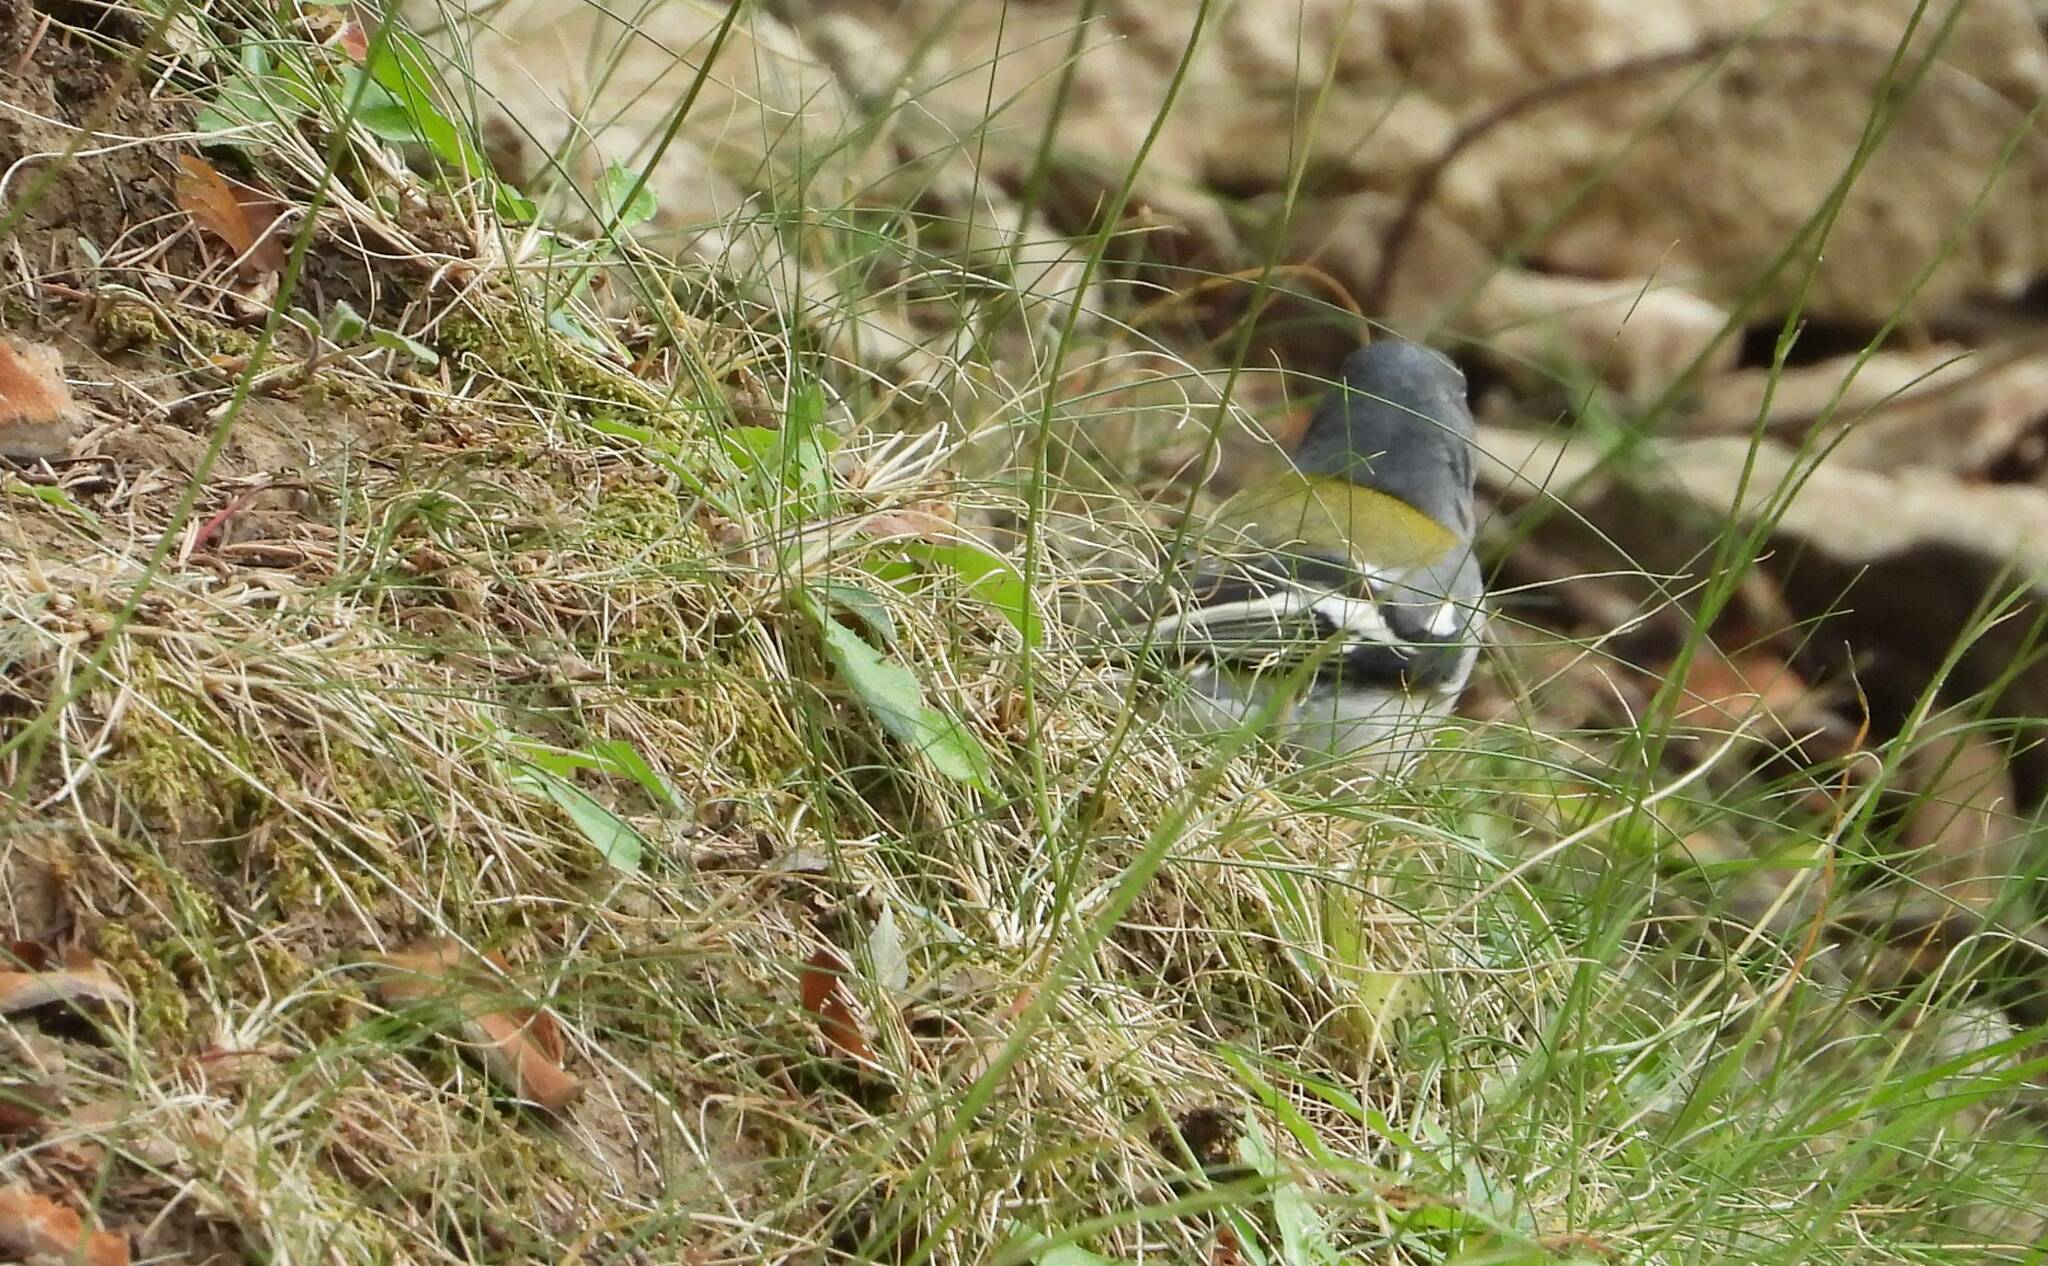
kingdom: Animalia
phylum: Chordata
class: Aves
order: Passeriformes
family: Fringillidae
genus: Fringilla
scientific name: Fringilla spodiogenys
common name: African chaffinch
